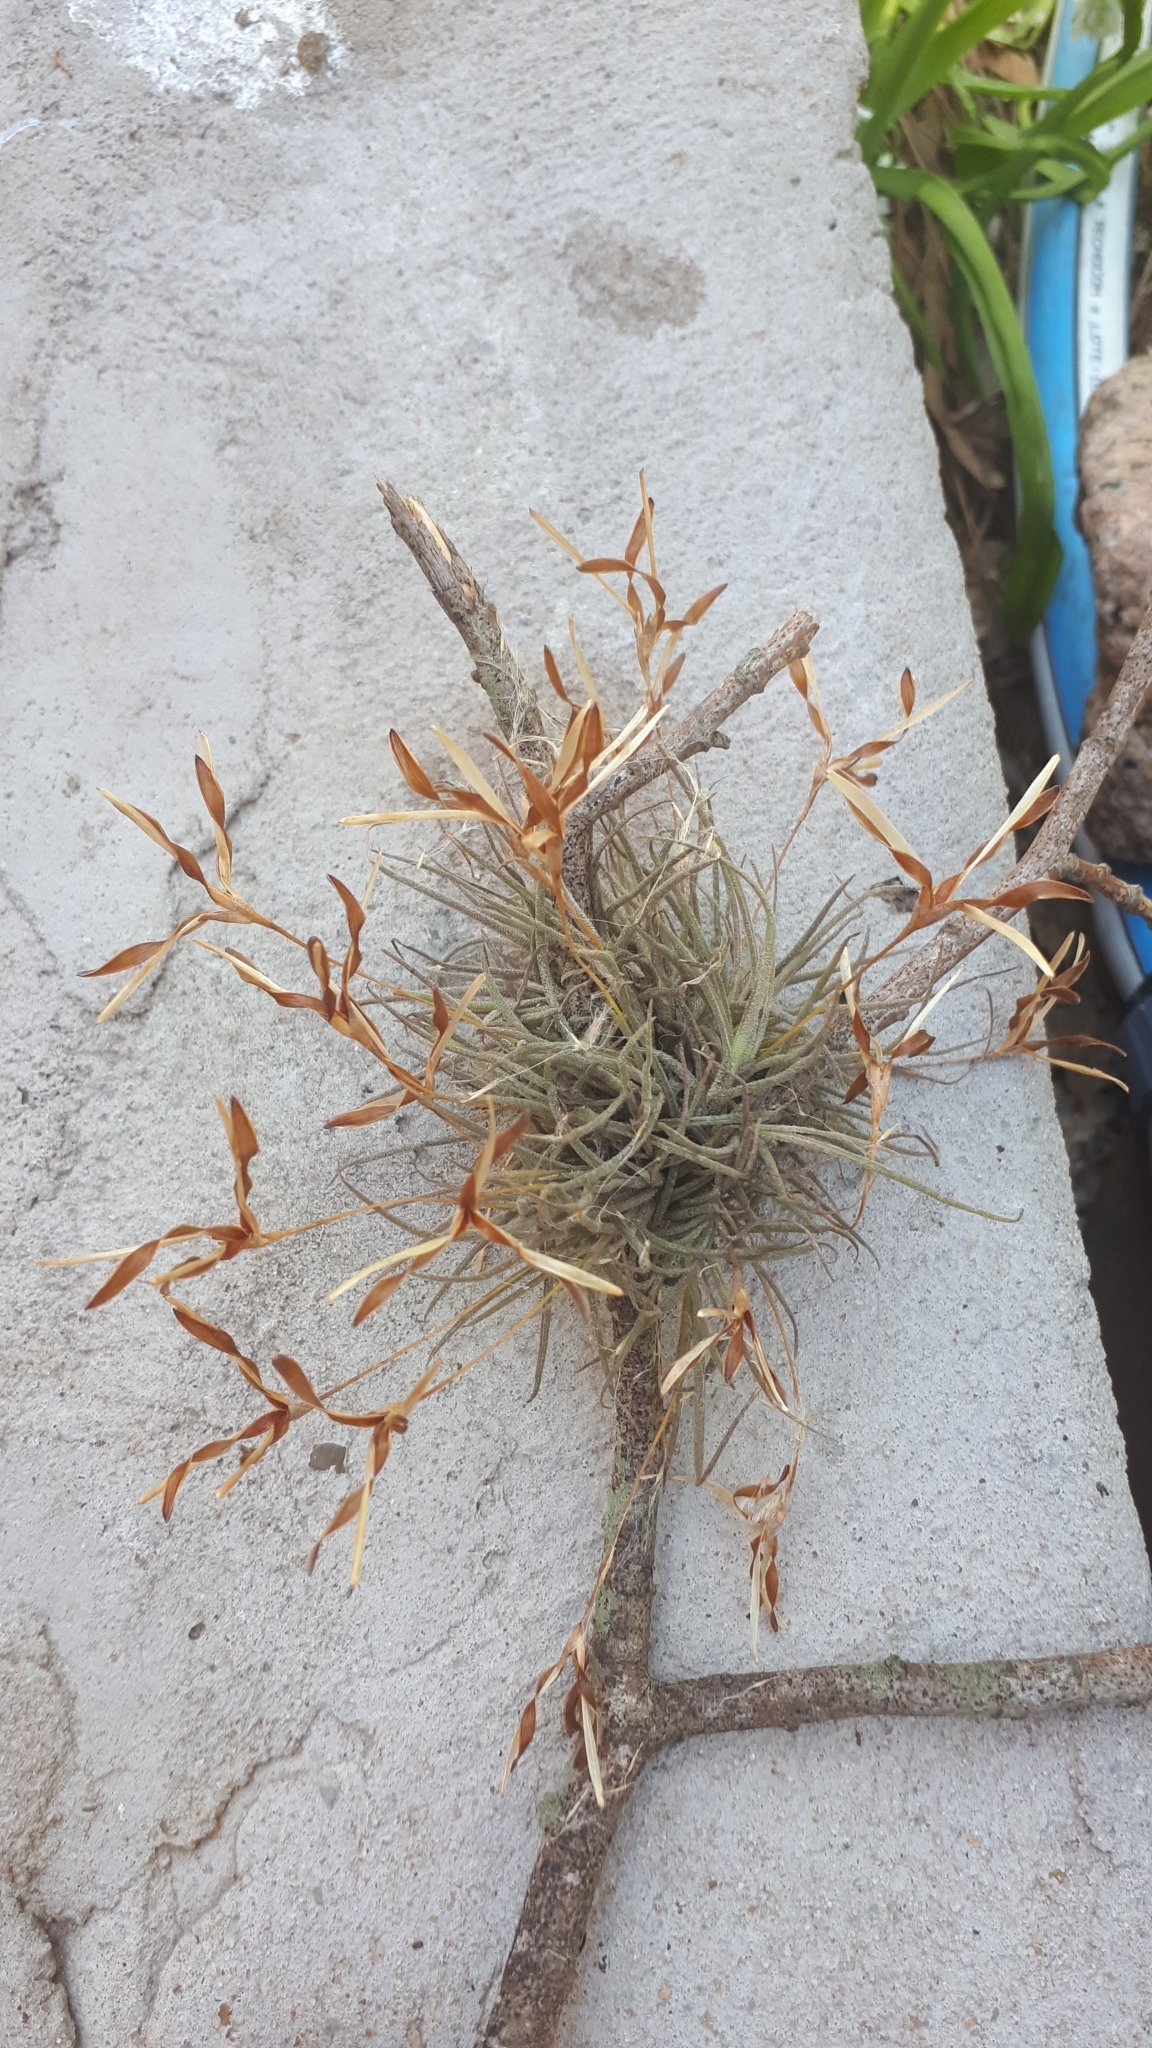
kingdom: Plantae
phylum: Tracheophyta
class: Liliopsida
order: Poales
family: Bromeliaceae
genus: Tillandsia
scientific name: Tillandsia recurvata
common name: Small ballmoss
